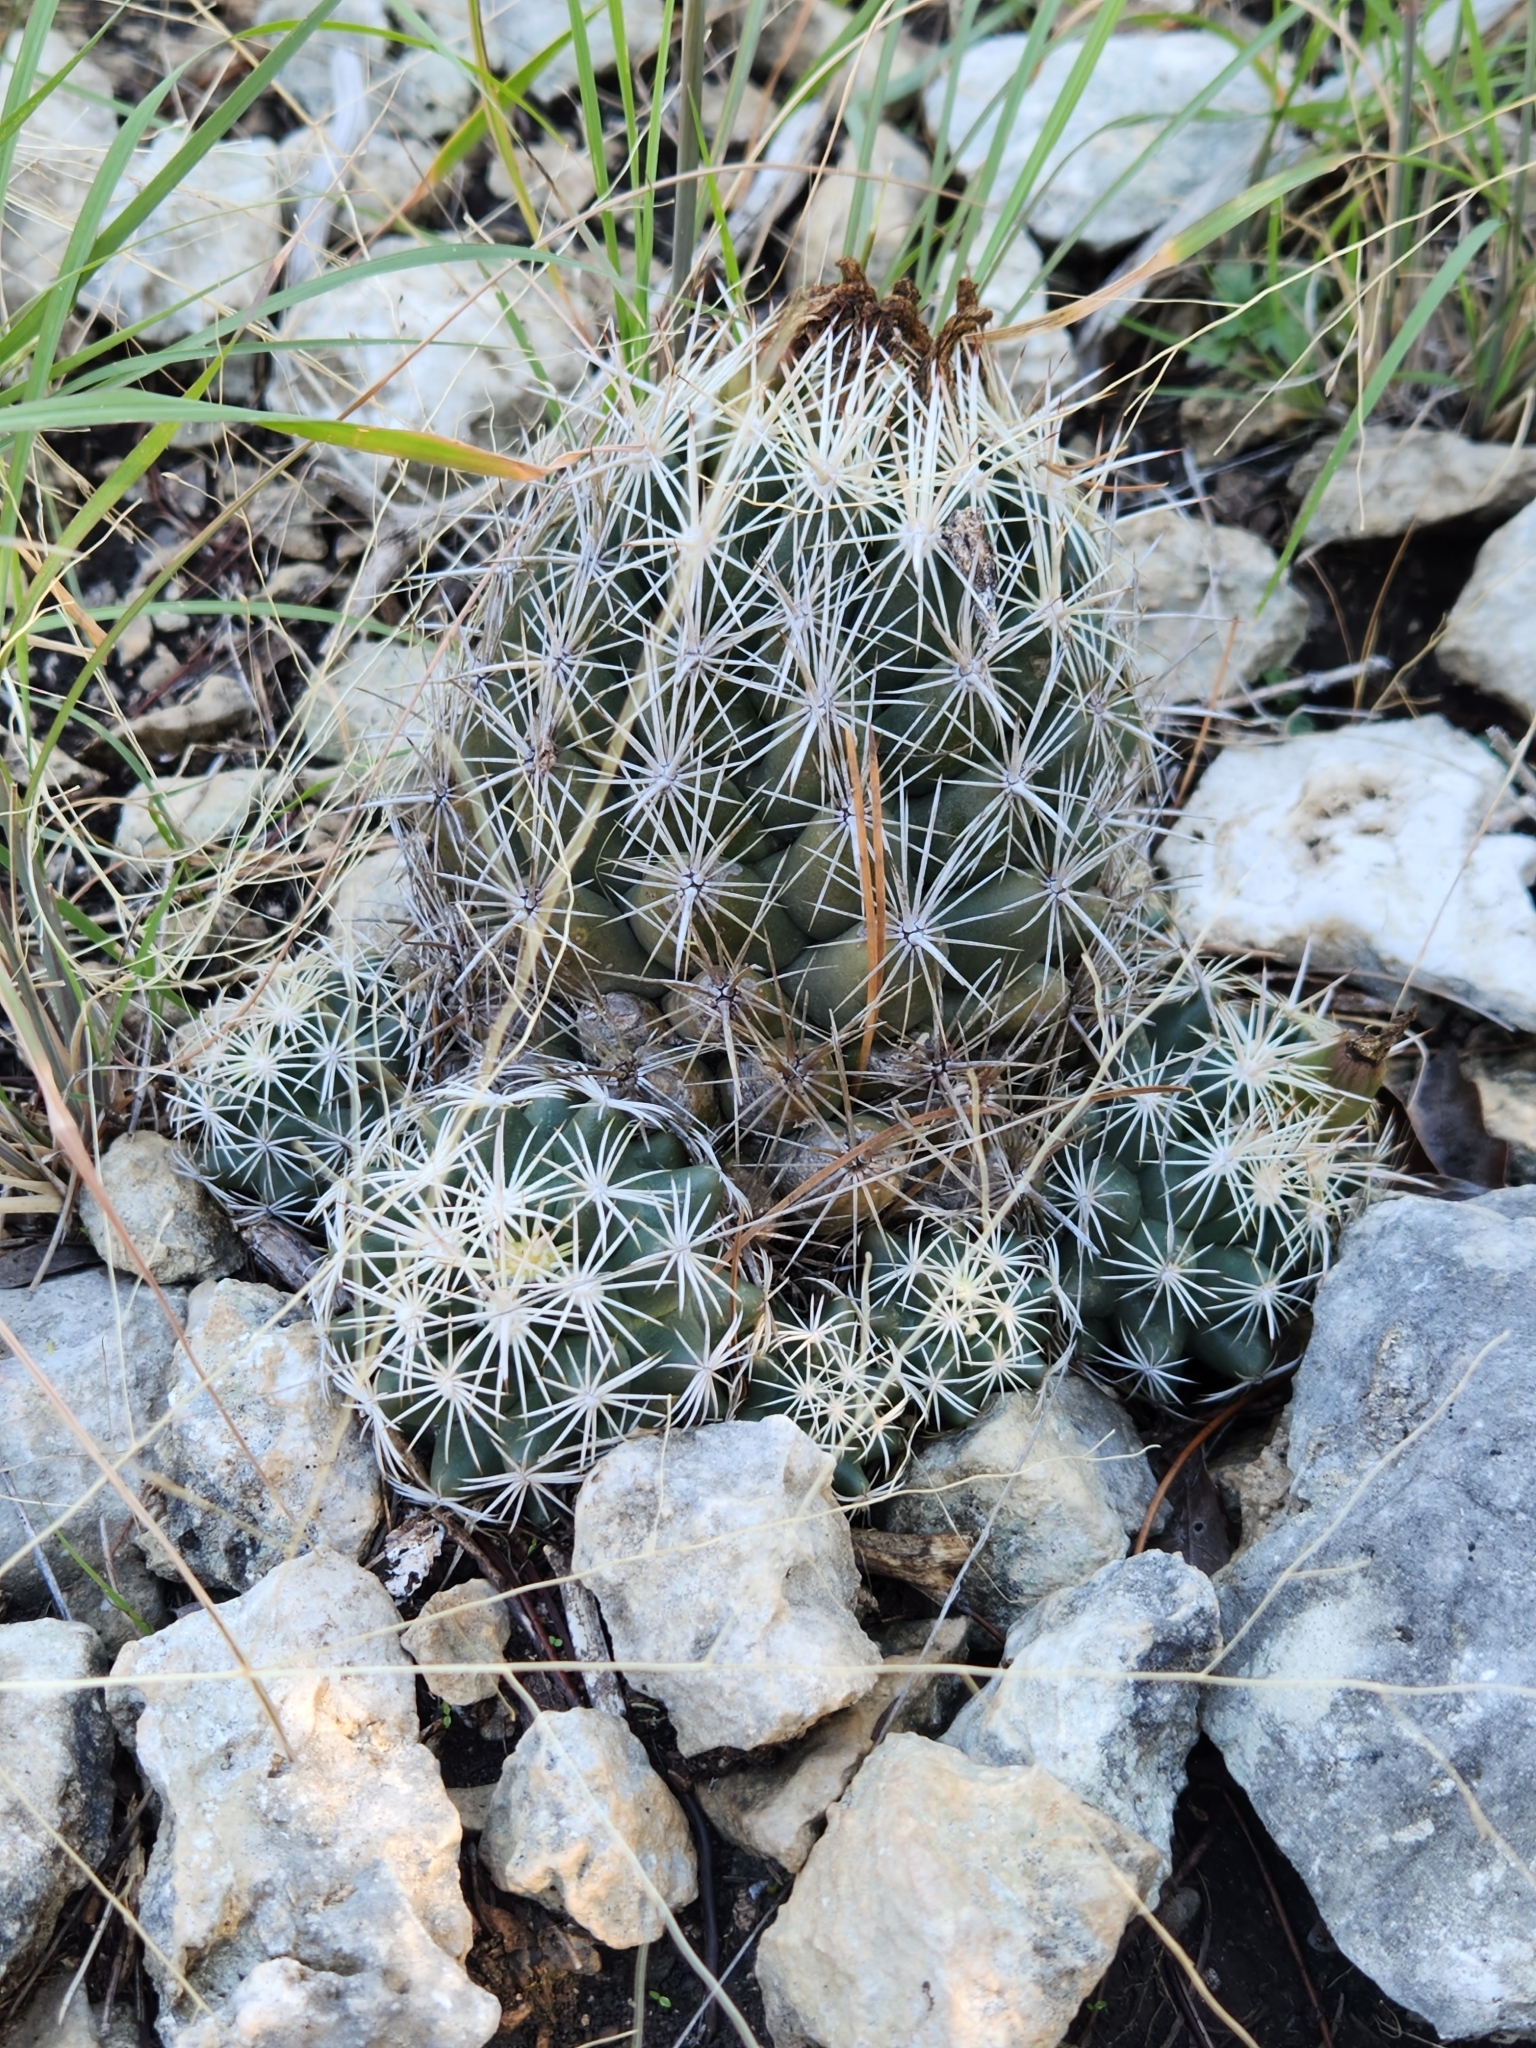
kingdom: Plantae
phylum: Tracheophyta
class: Magnoliopsida
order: Caryophyllales
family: Cactaceae
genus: Coryphantha
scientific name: Coryphantha sulcata
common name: Finger cactus
